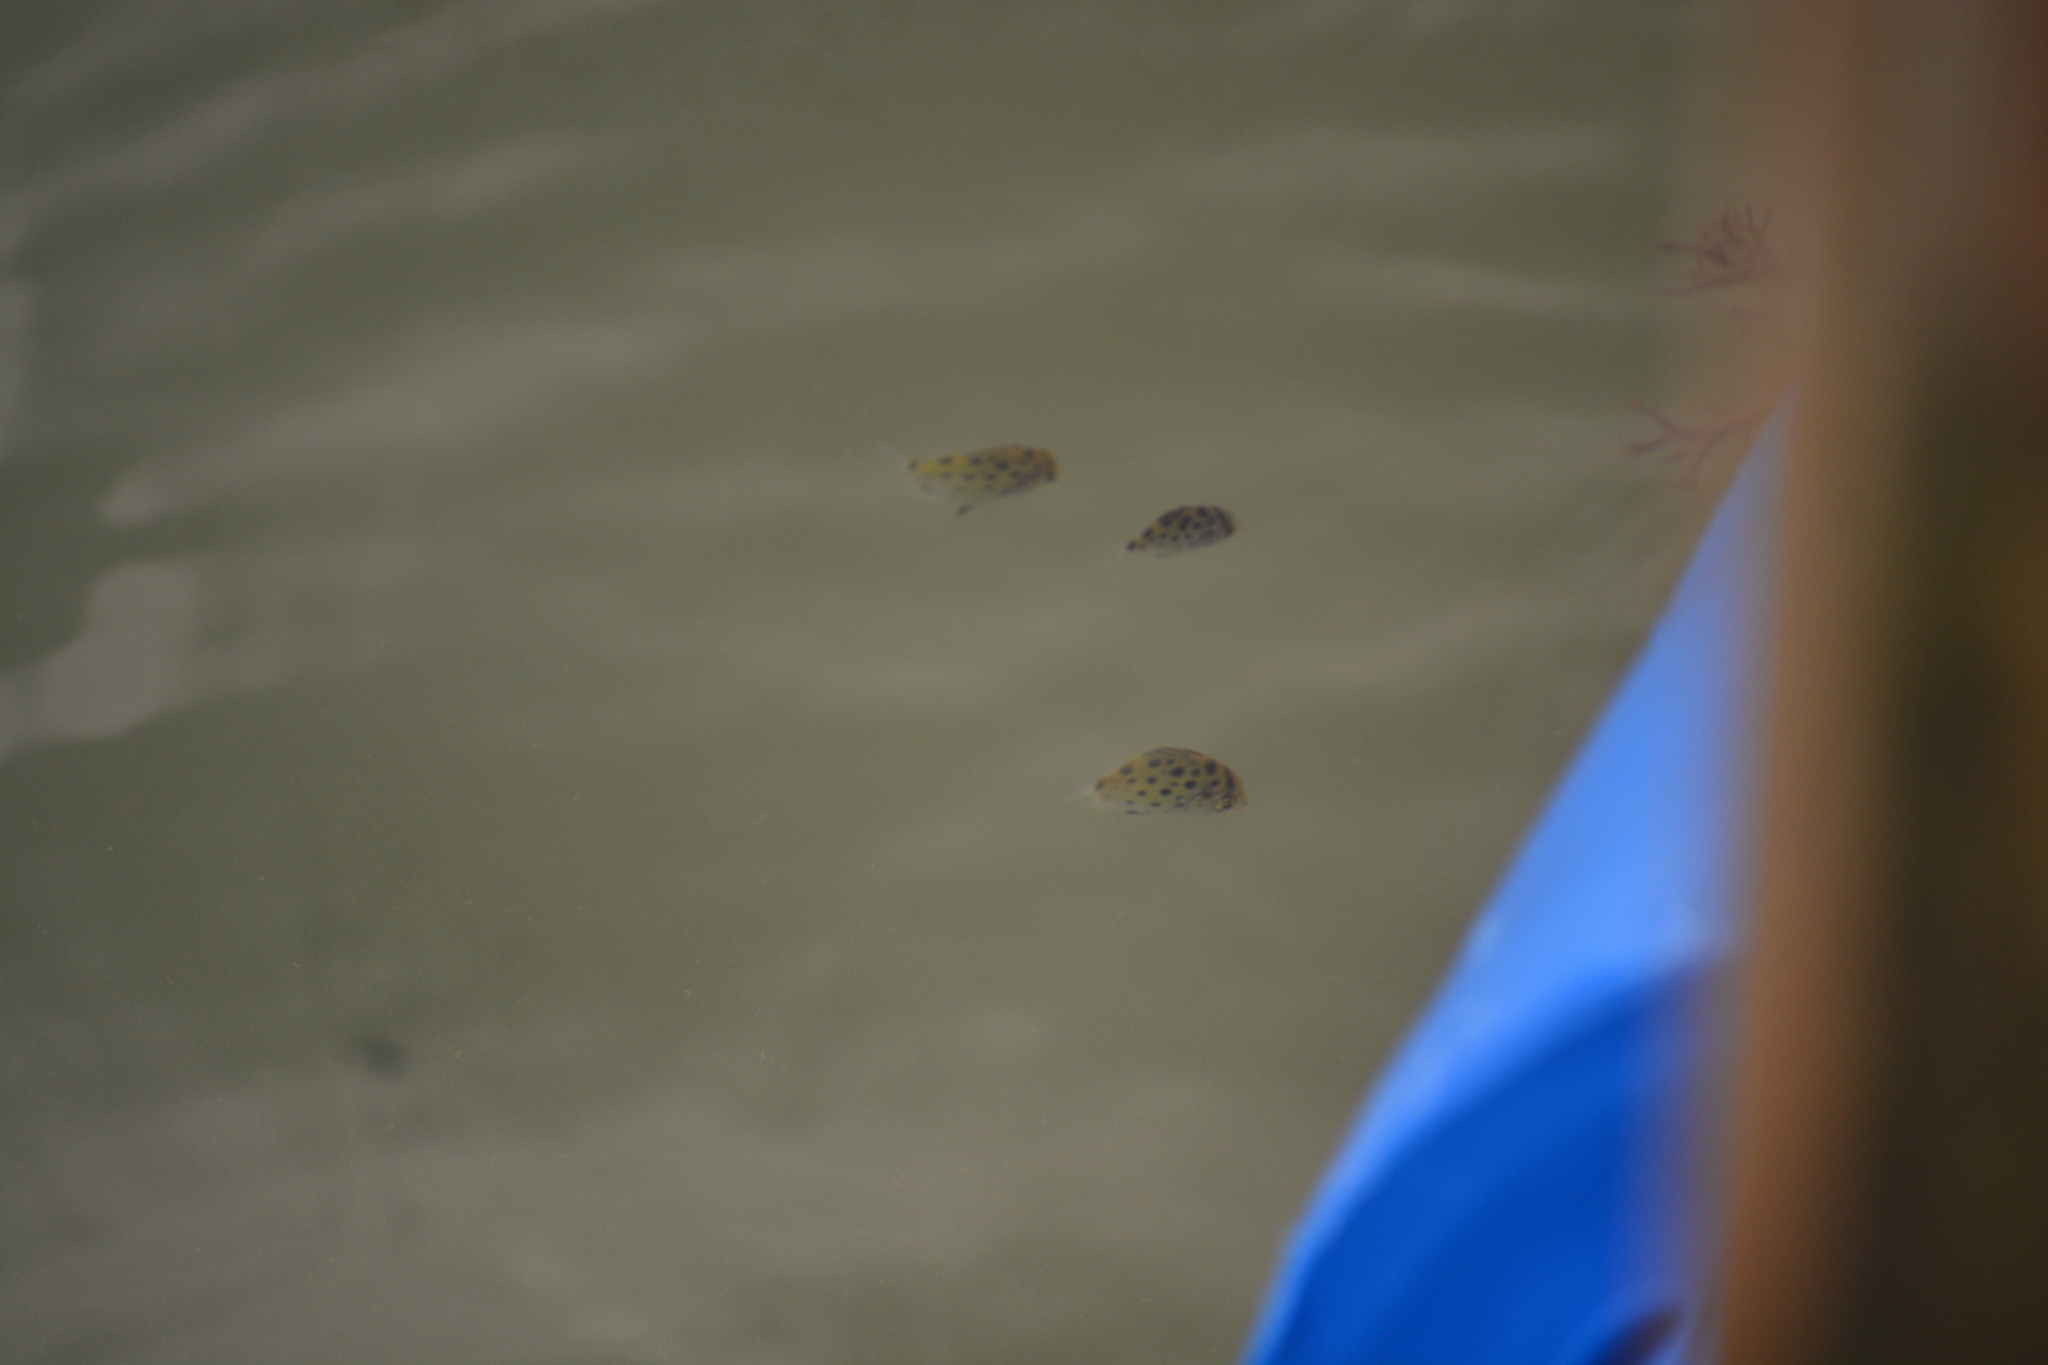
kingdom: Animalia
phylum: Chordata
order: Perciformes
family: Scatophagidae
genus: Scatophagus
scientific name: Scatophagus argus
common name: Spotted scat
